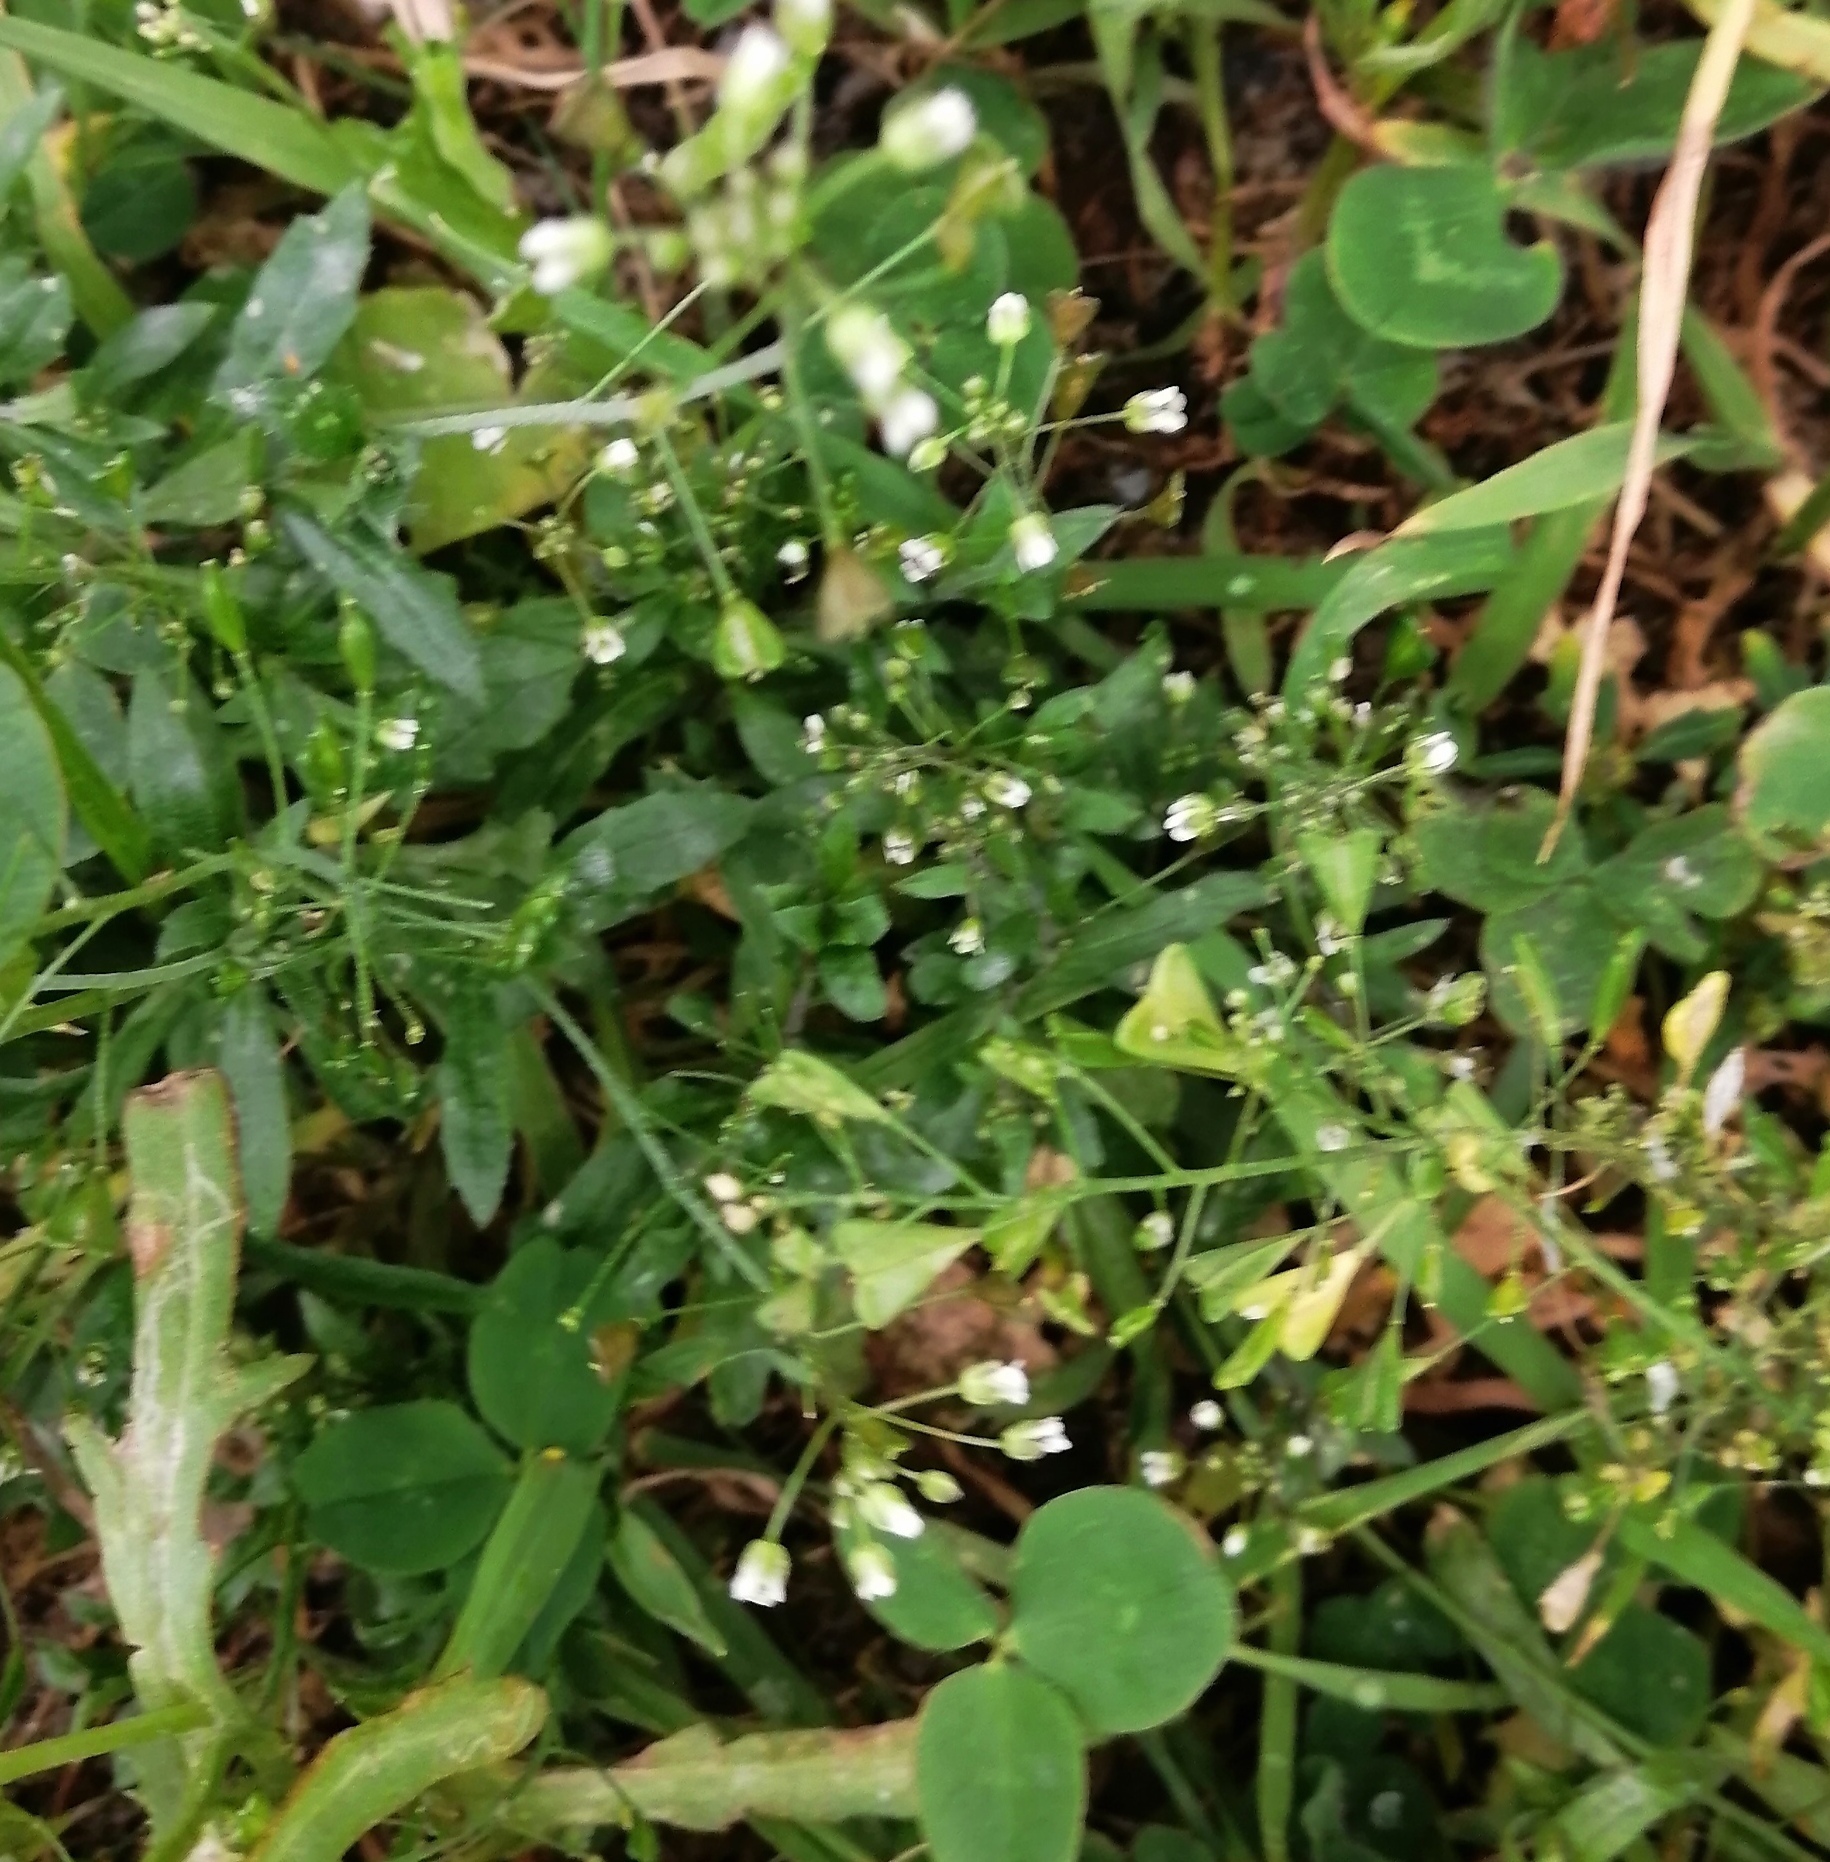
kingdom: Plantae
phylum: Tracheophyta
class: Magnoliopsida
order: Brassicales
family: Brassicaceae
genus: Capsella
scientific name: Capsella bursa-pastoris
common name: Shepherd's purse
